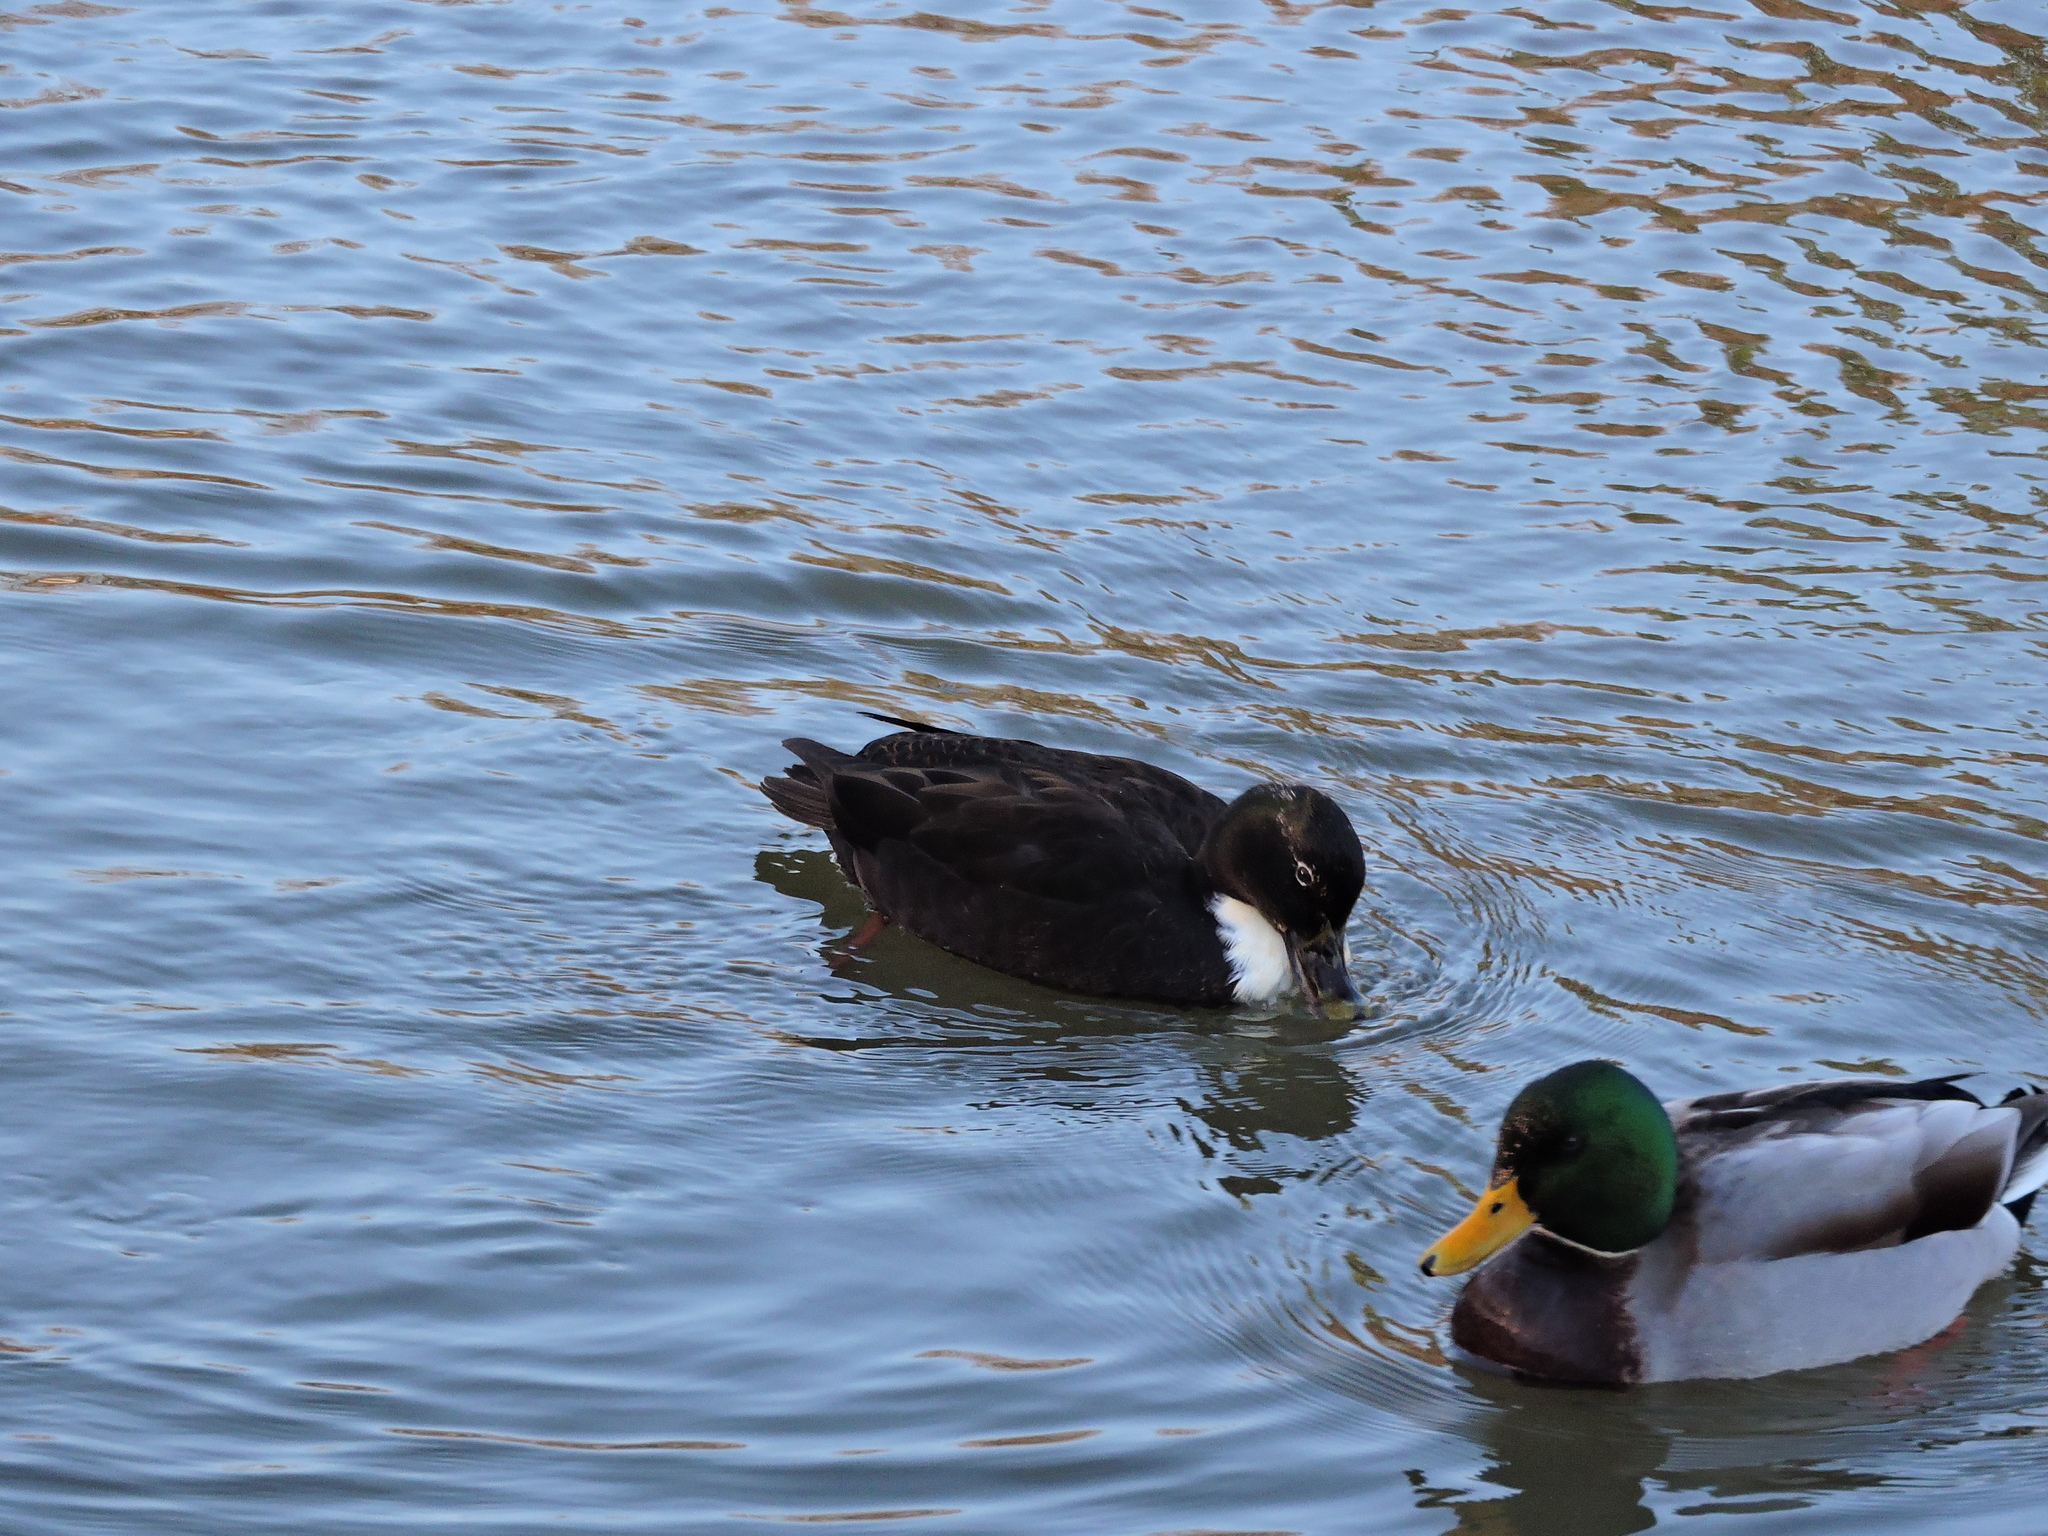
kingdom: Animalia
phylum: Chordata
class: Aves
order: Anseriformes
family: Anatidae
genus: Anas
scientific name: Anas platyrhynchos
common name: Mallard
